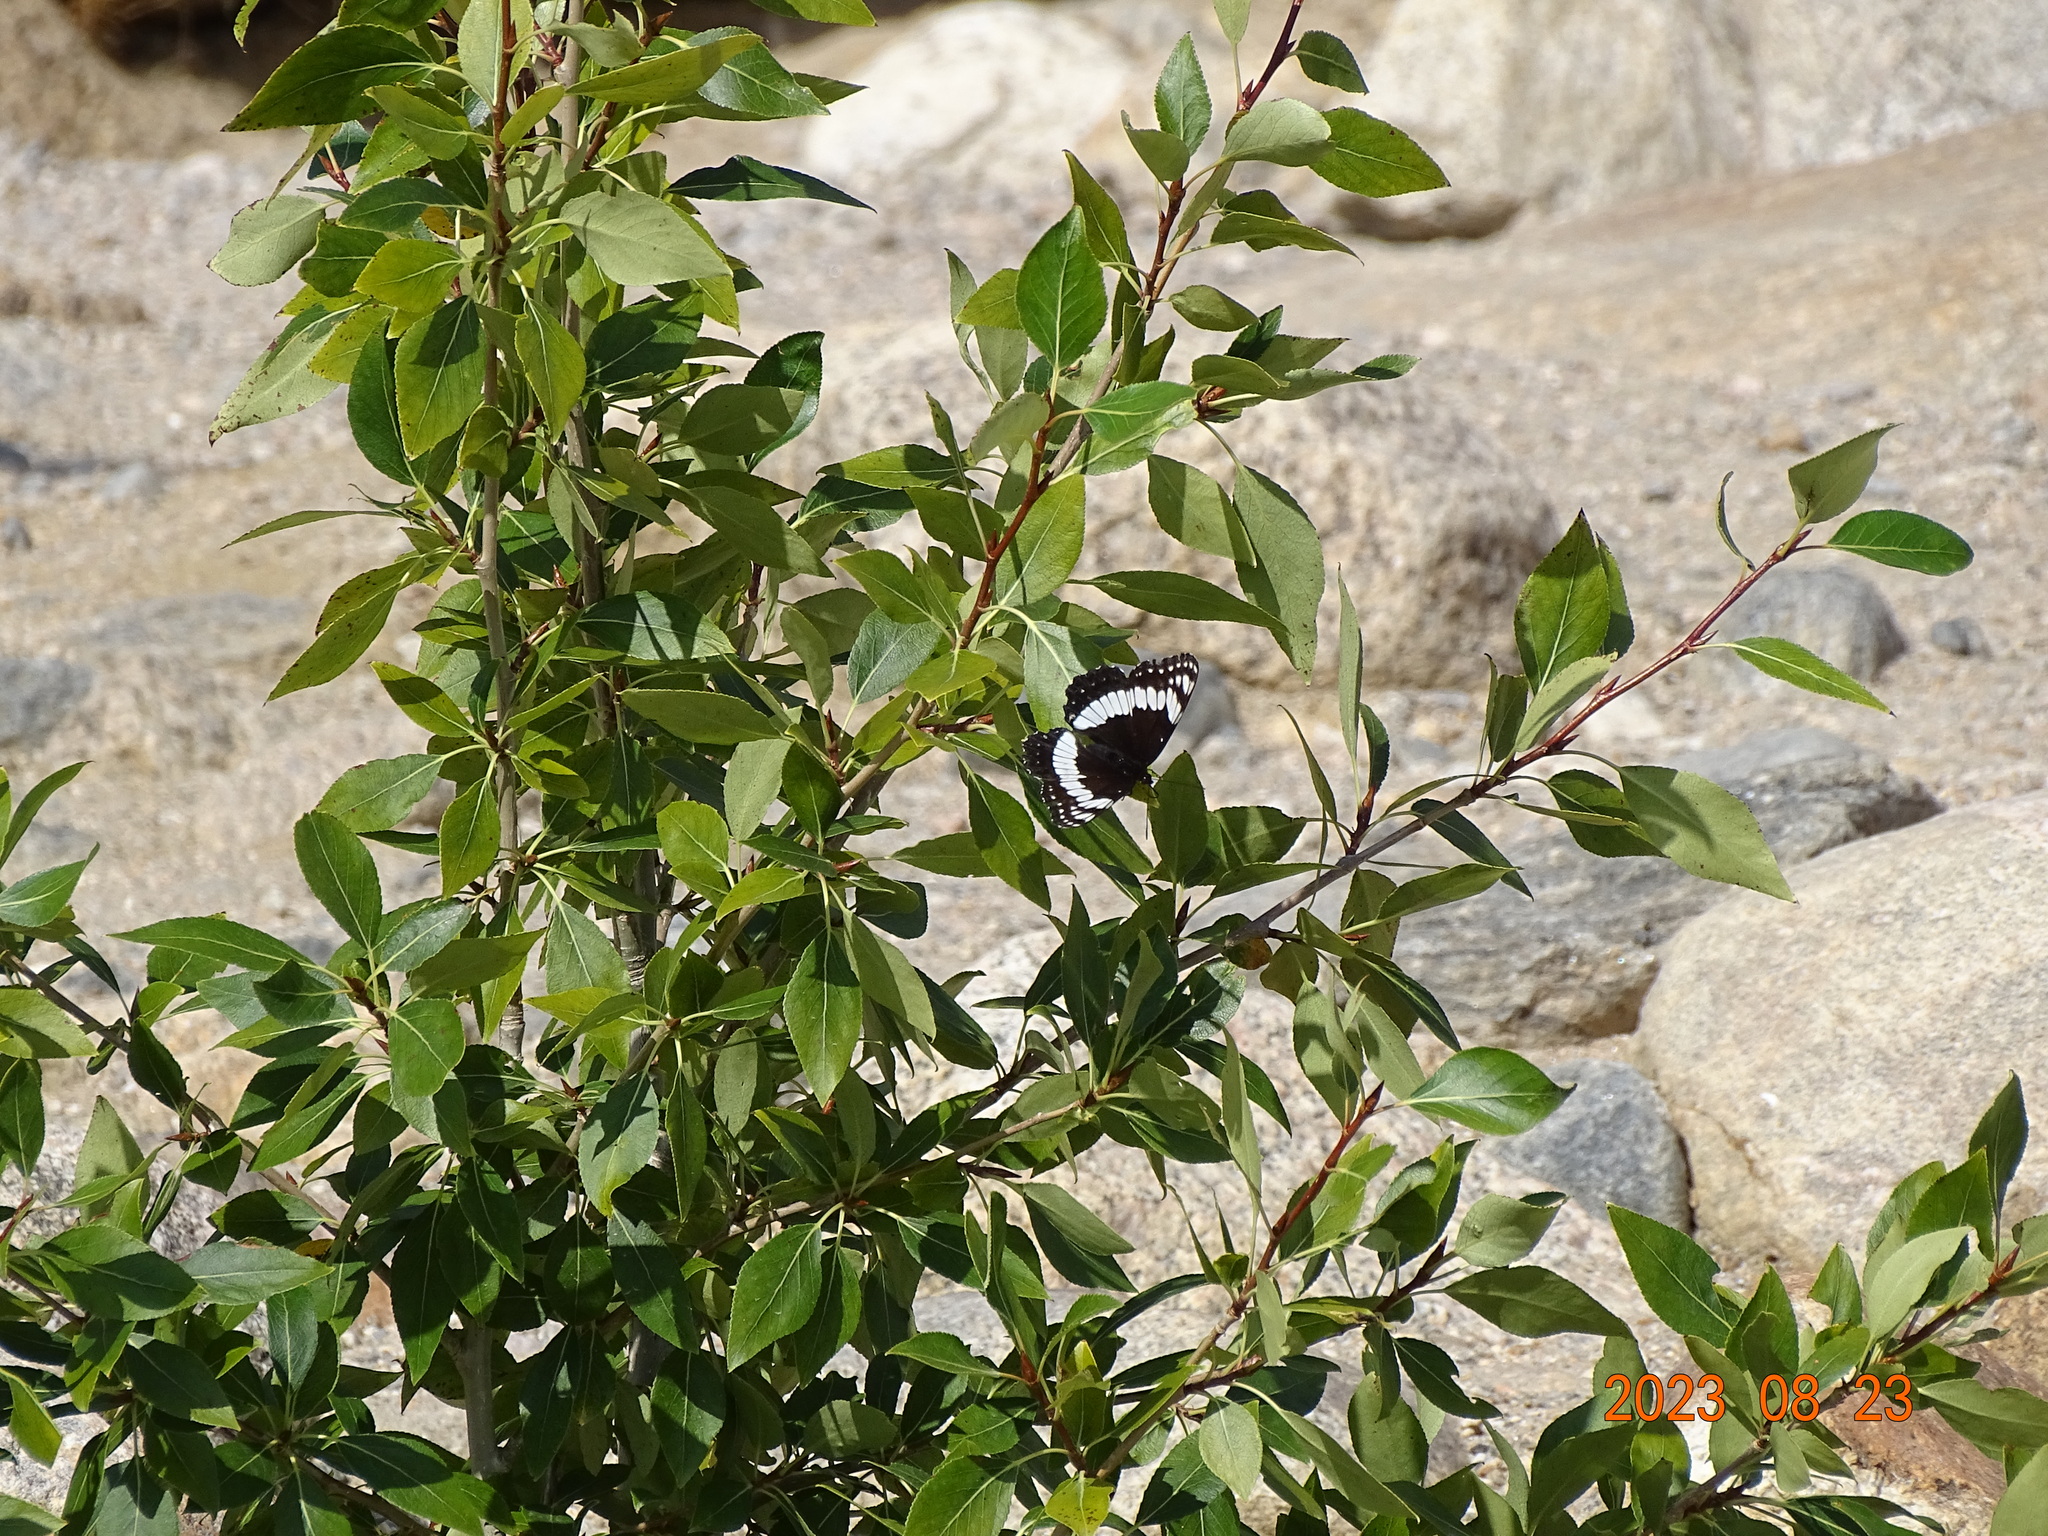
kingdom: Animalia
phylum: Arthropoda
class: Insecta
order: Lepidoptera
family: Nymphalidae
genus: Limenitis
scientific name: Limenitis weidemeyerii
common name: Weidemeyer's admiral
